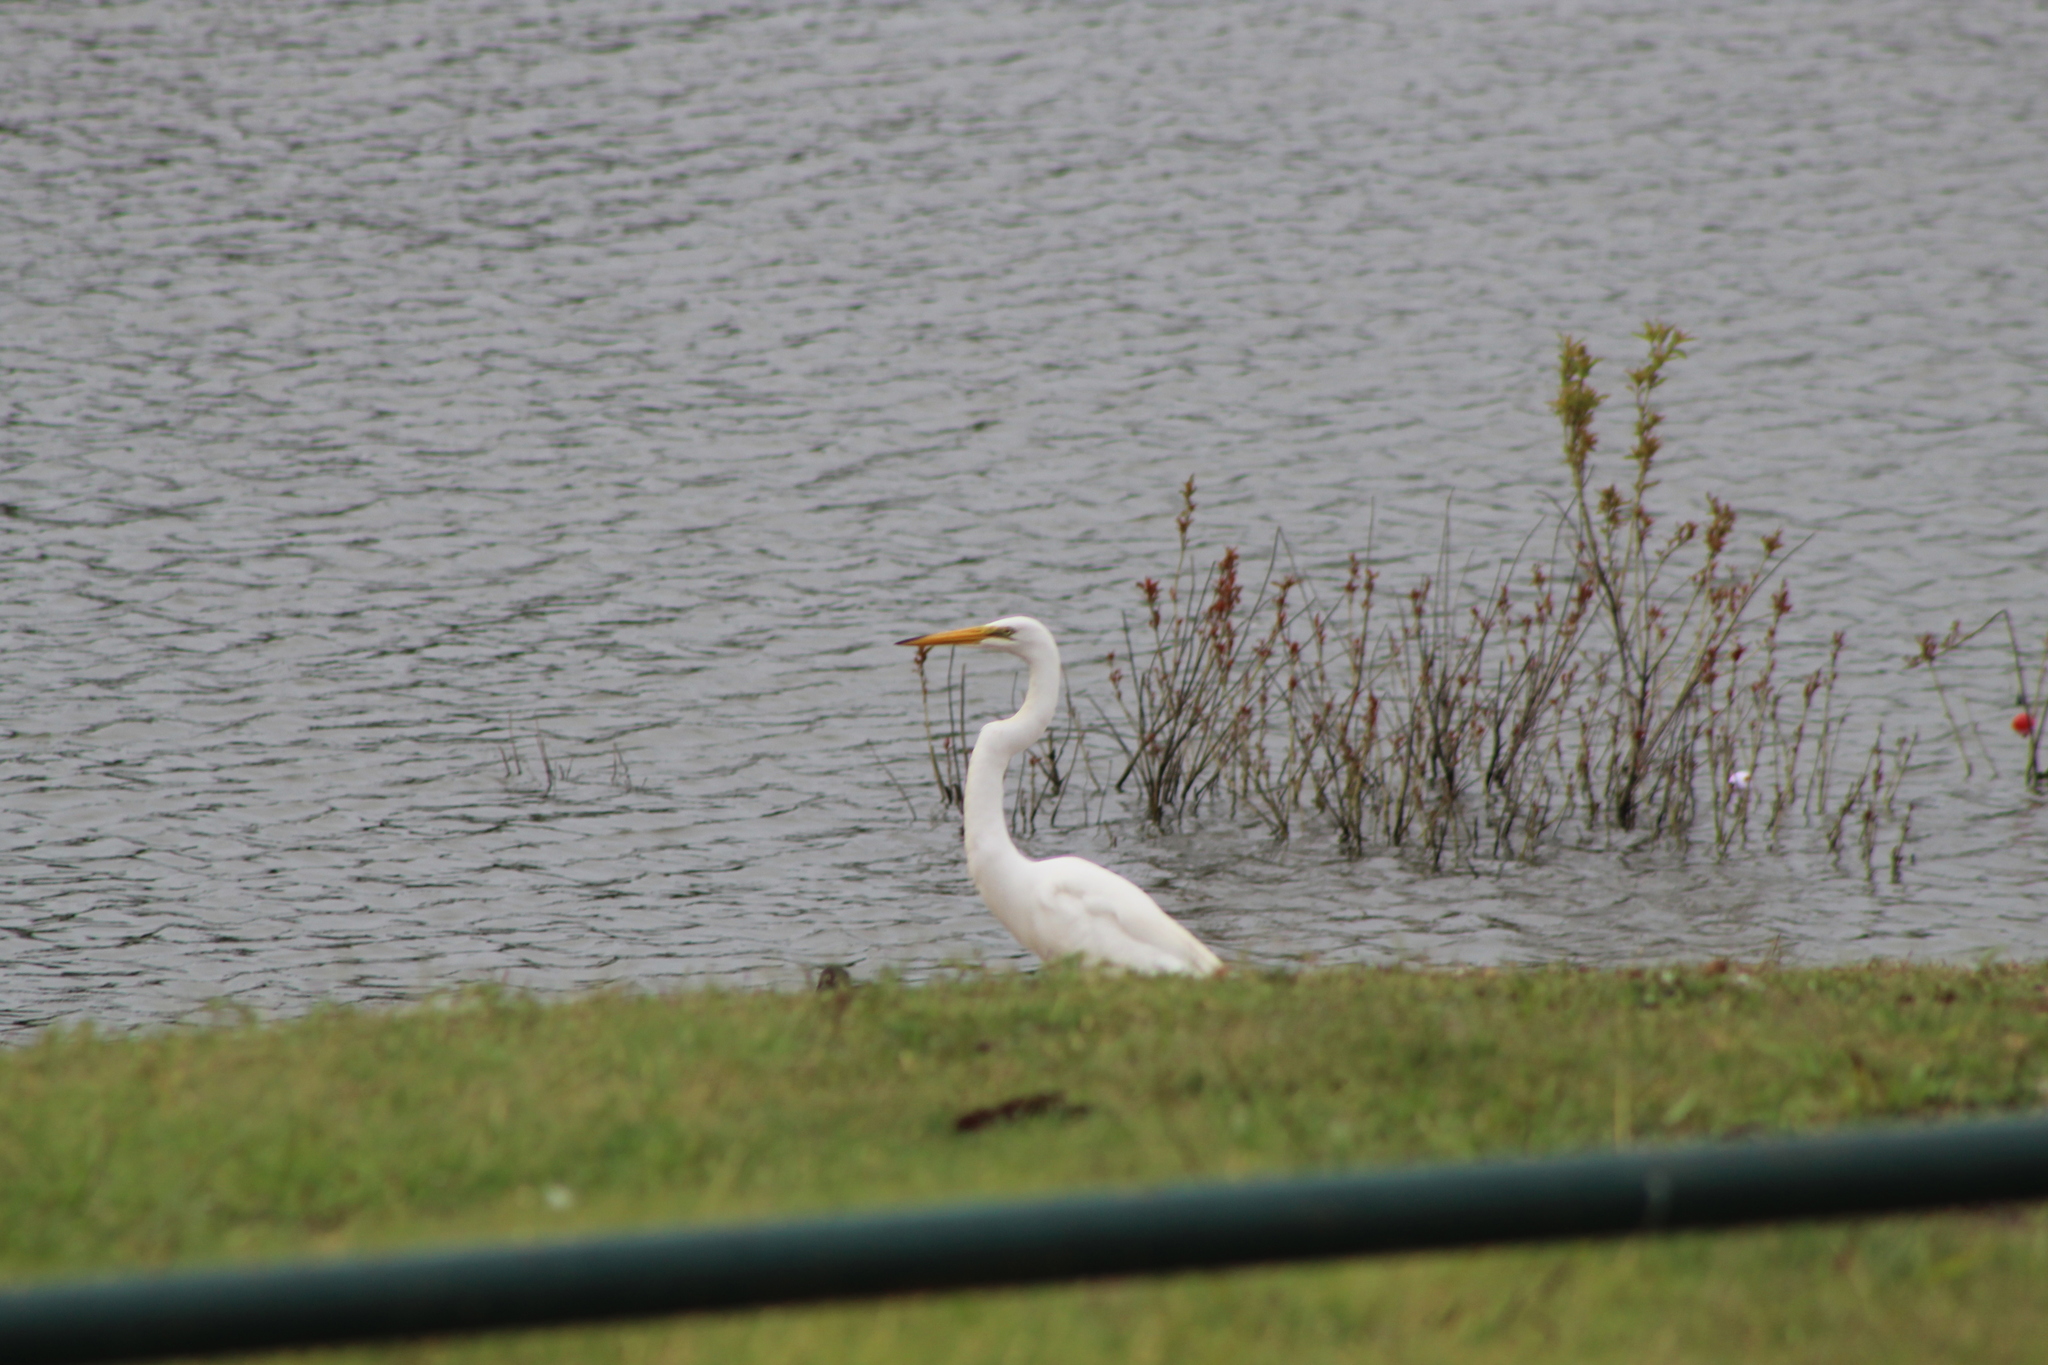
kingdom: Animalia
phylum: Chordata
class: Aves
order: Pelecaniformes
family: Ardeidae
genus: Ardea
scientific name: Ardea alba
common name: Great egret
